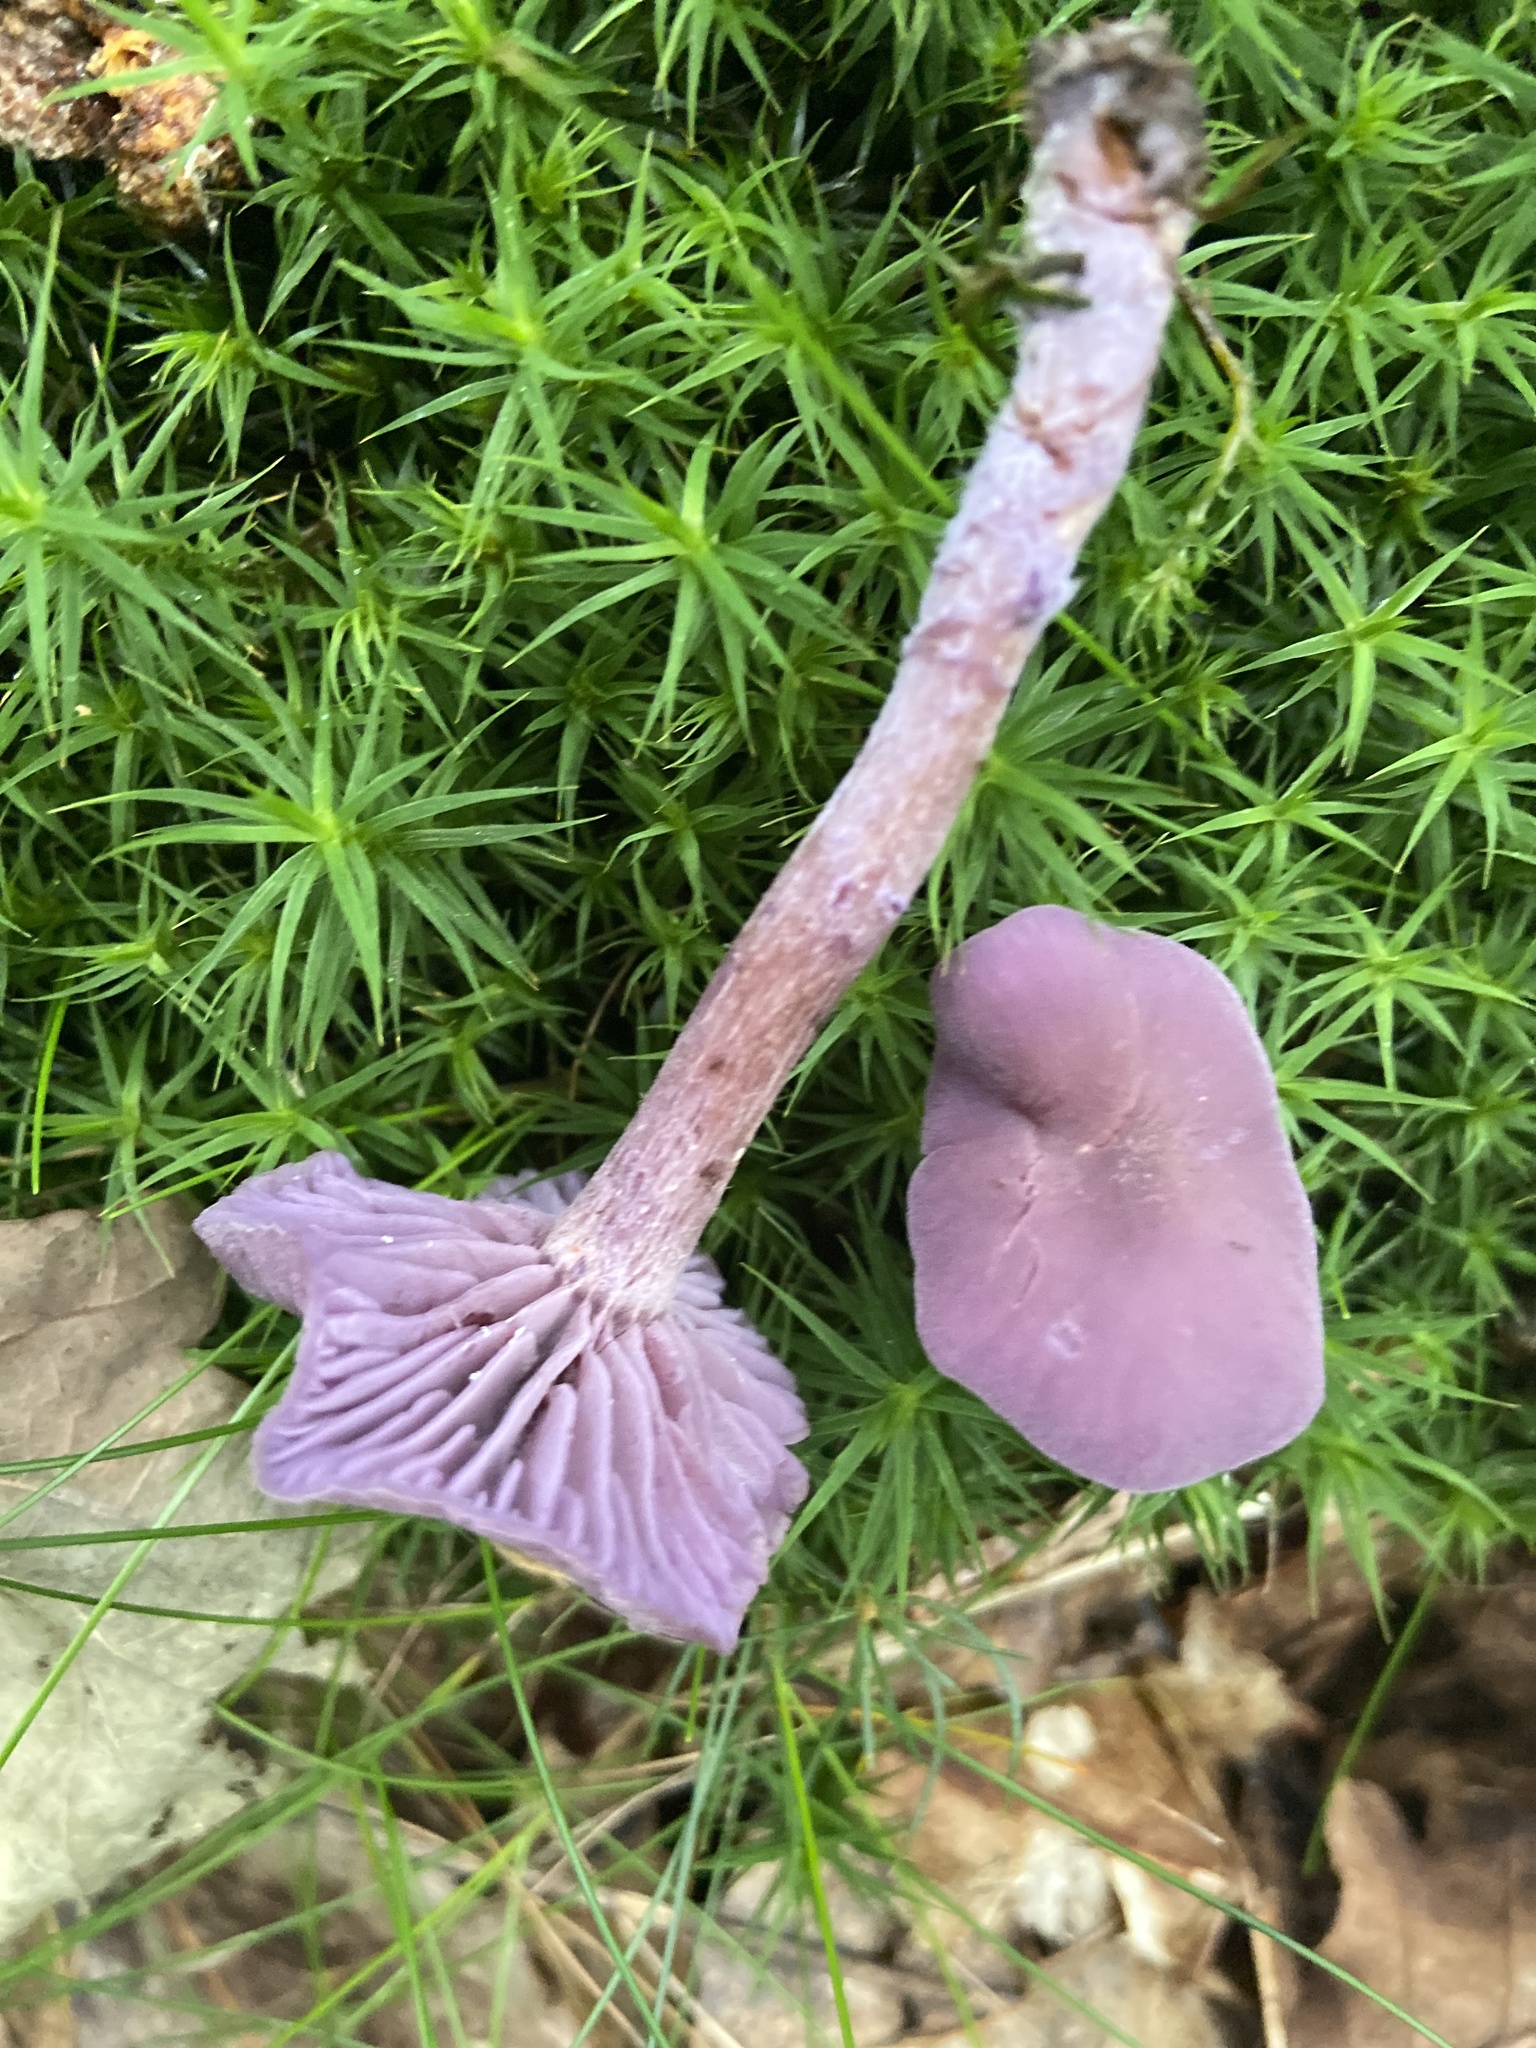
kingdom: Fungi
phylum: Basidiomycota
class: Agaricomycetes
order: Agaricales
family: Hydnangiaceae
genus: Laccaria
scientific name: Laccaria amethystina
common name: Amethyst deceiver
